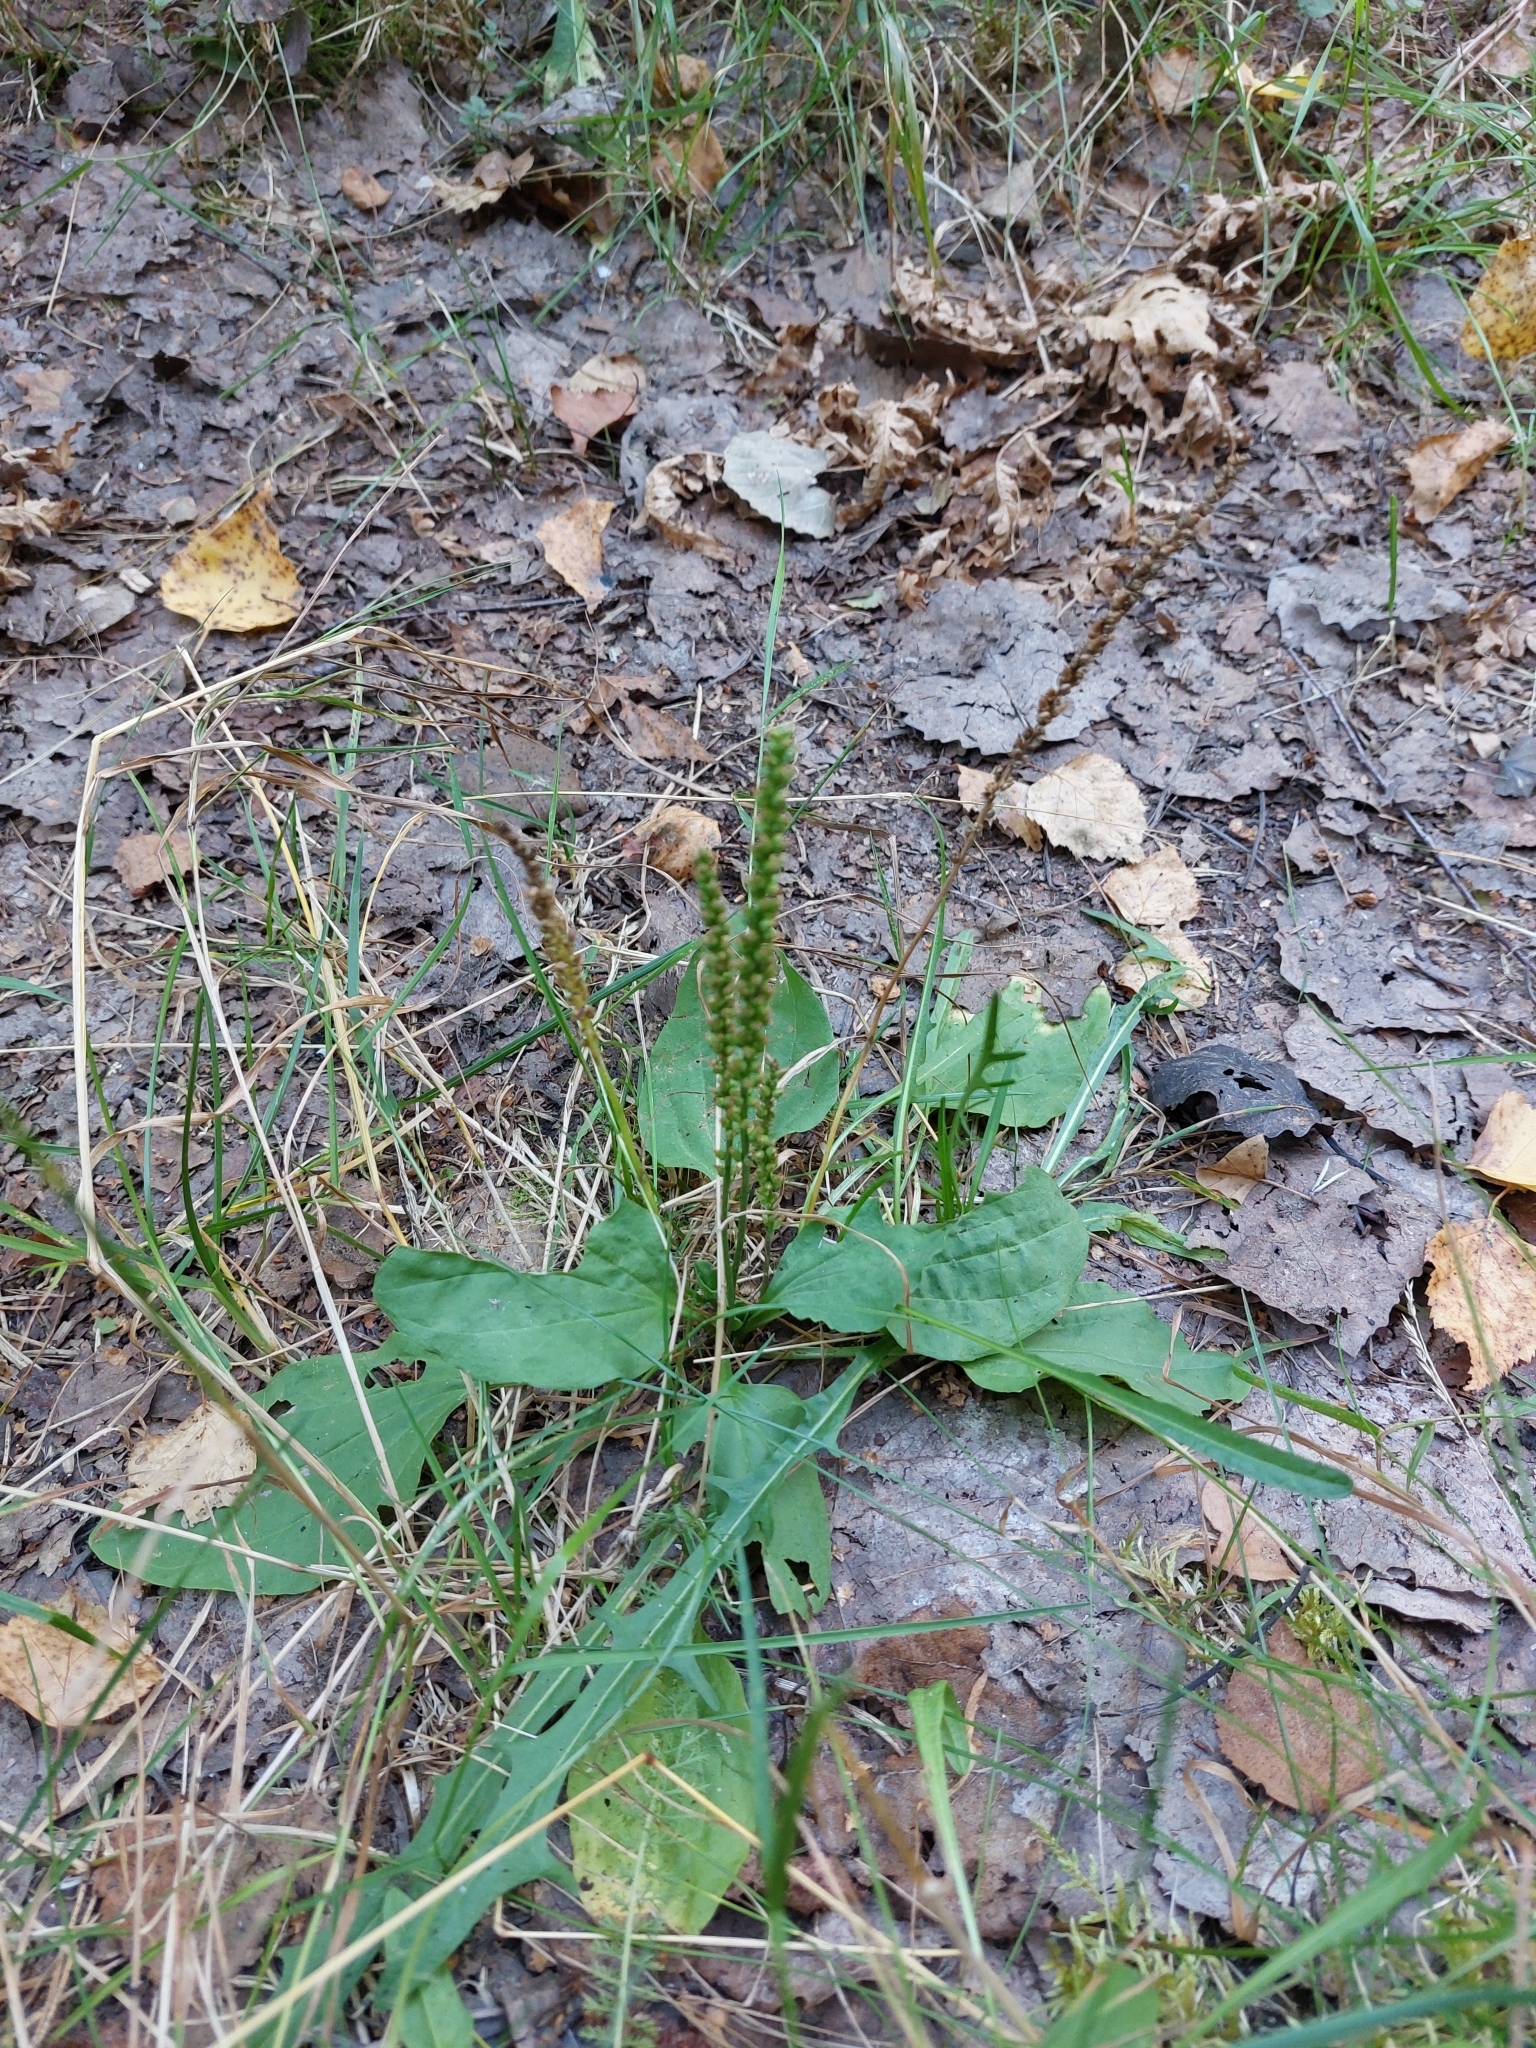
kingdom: Plantae
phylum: Tracheophyta
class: Magnoliopsida
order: Lamiales
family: Plantaginaceae
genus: Plantago
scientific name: Plantago major
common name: Common plantain
